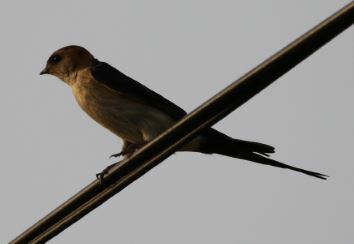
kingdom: Animalia
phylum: Chordata
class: Aves
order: Passeriformes
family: Hirundinidae
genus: Cecropis
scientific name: Cecropis daurica
